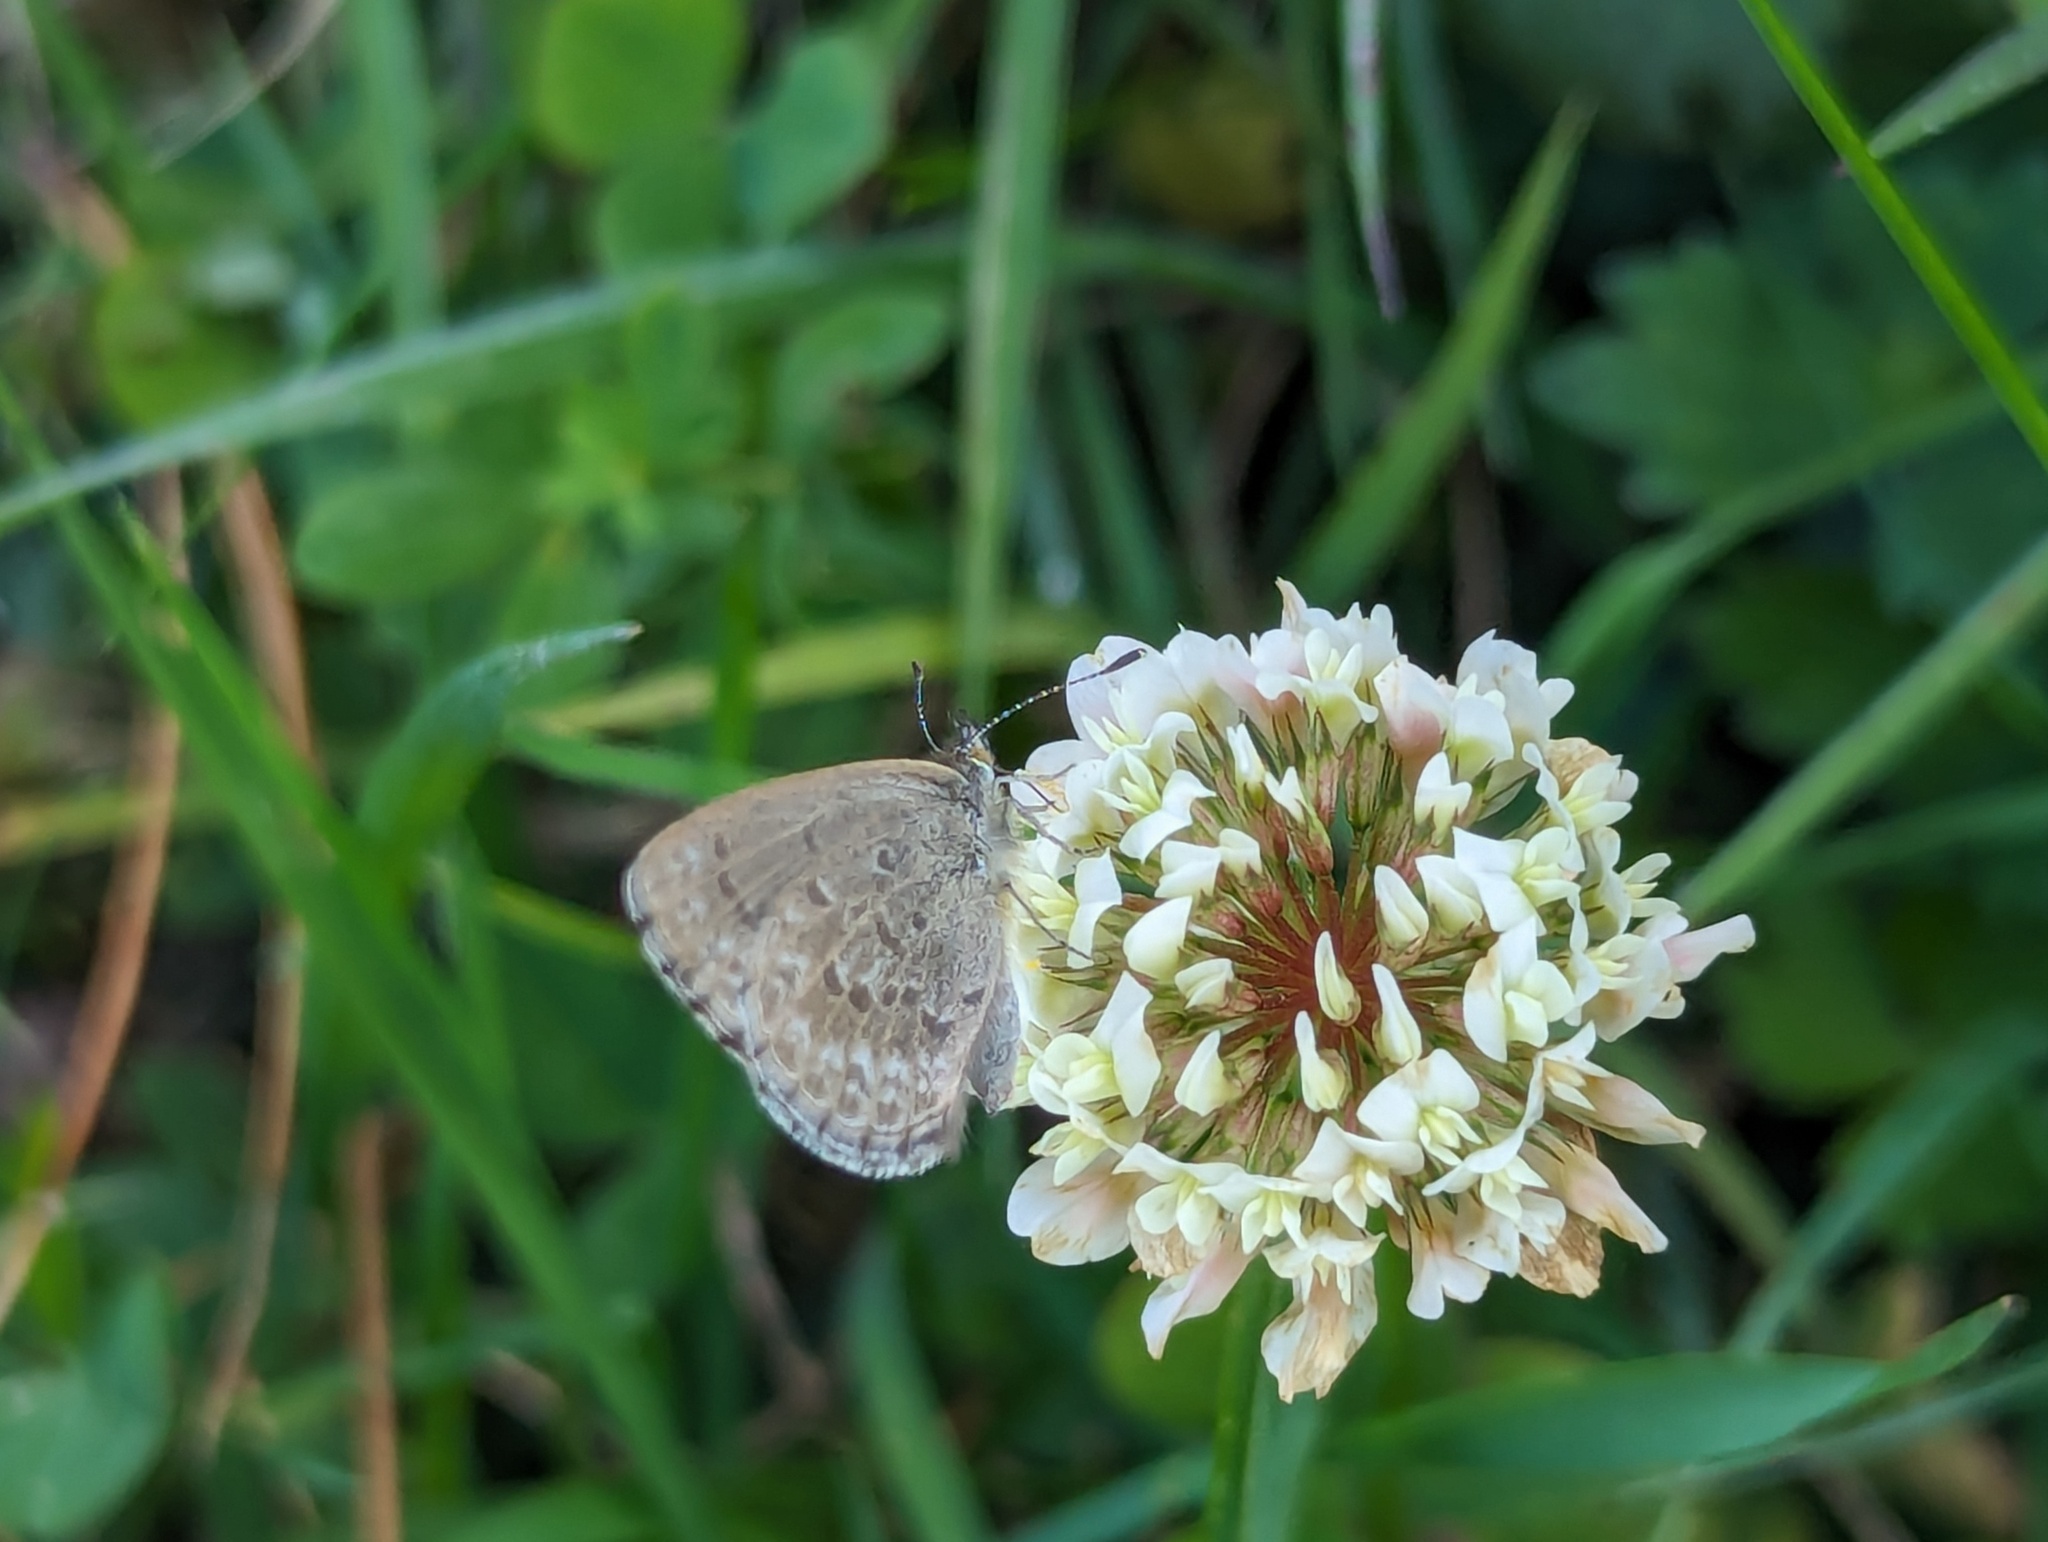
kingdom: Animalia
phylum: Arthropoda
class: Insecta
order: Lepidoptera
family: Lycaenidae
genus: Zizina
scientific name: Zizina labradus
